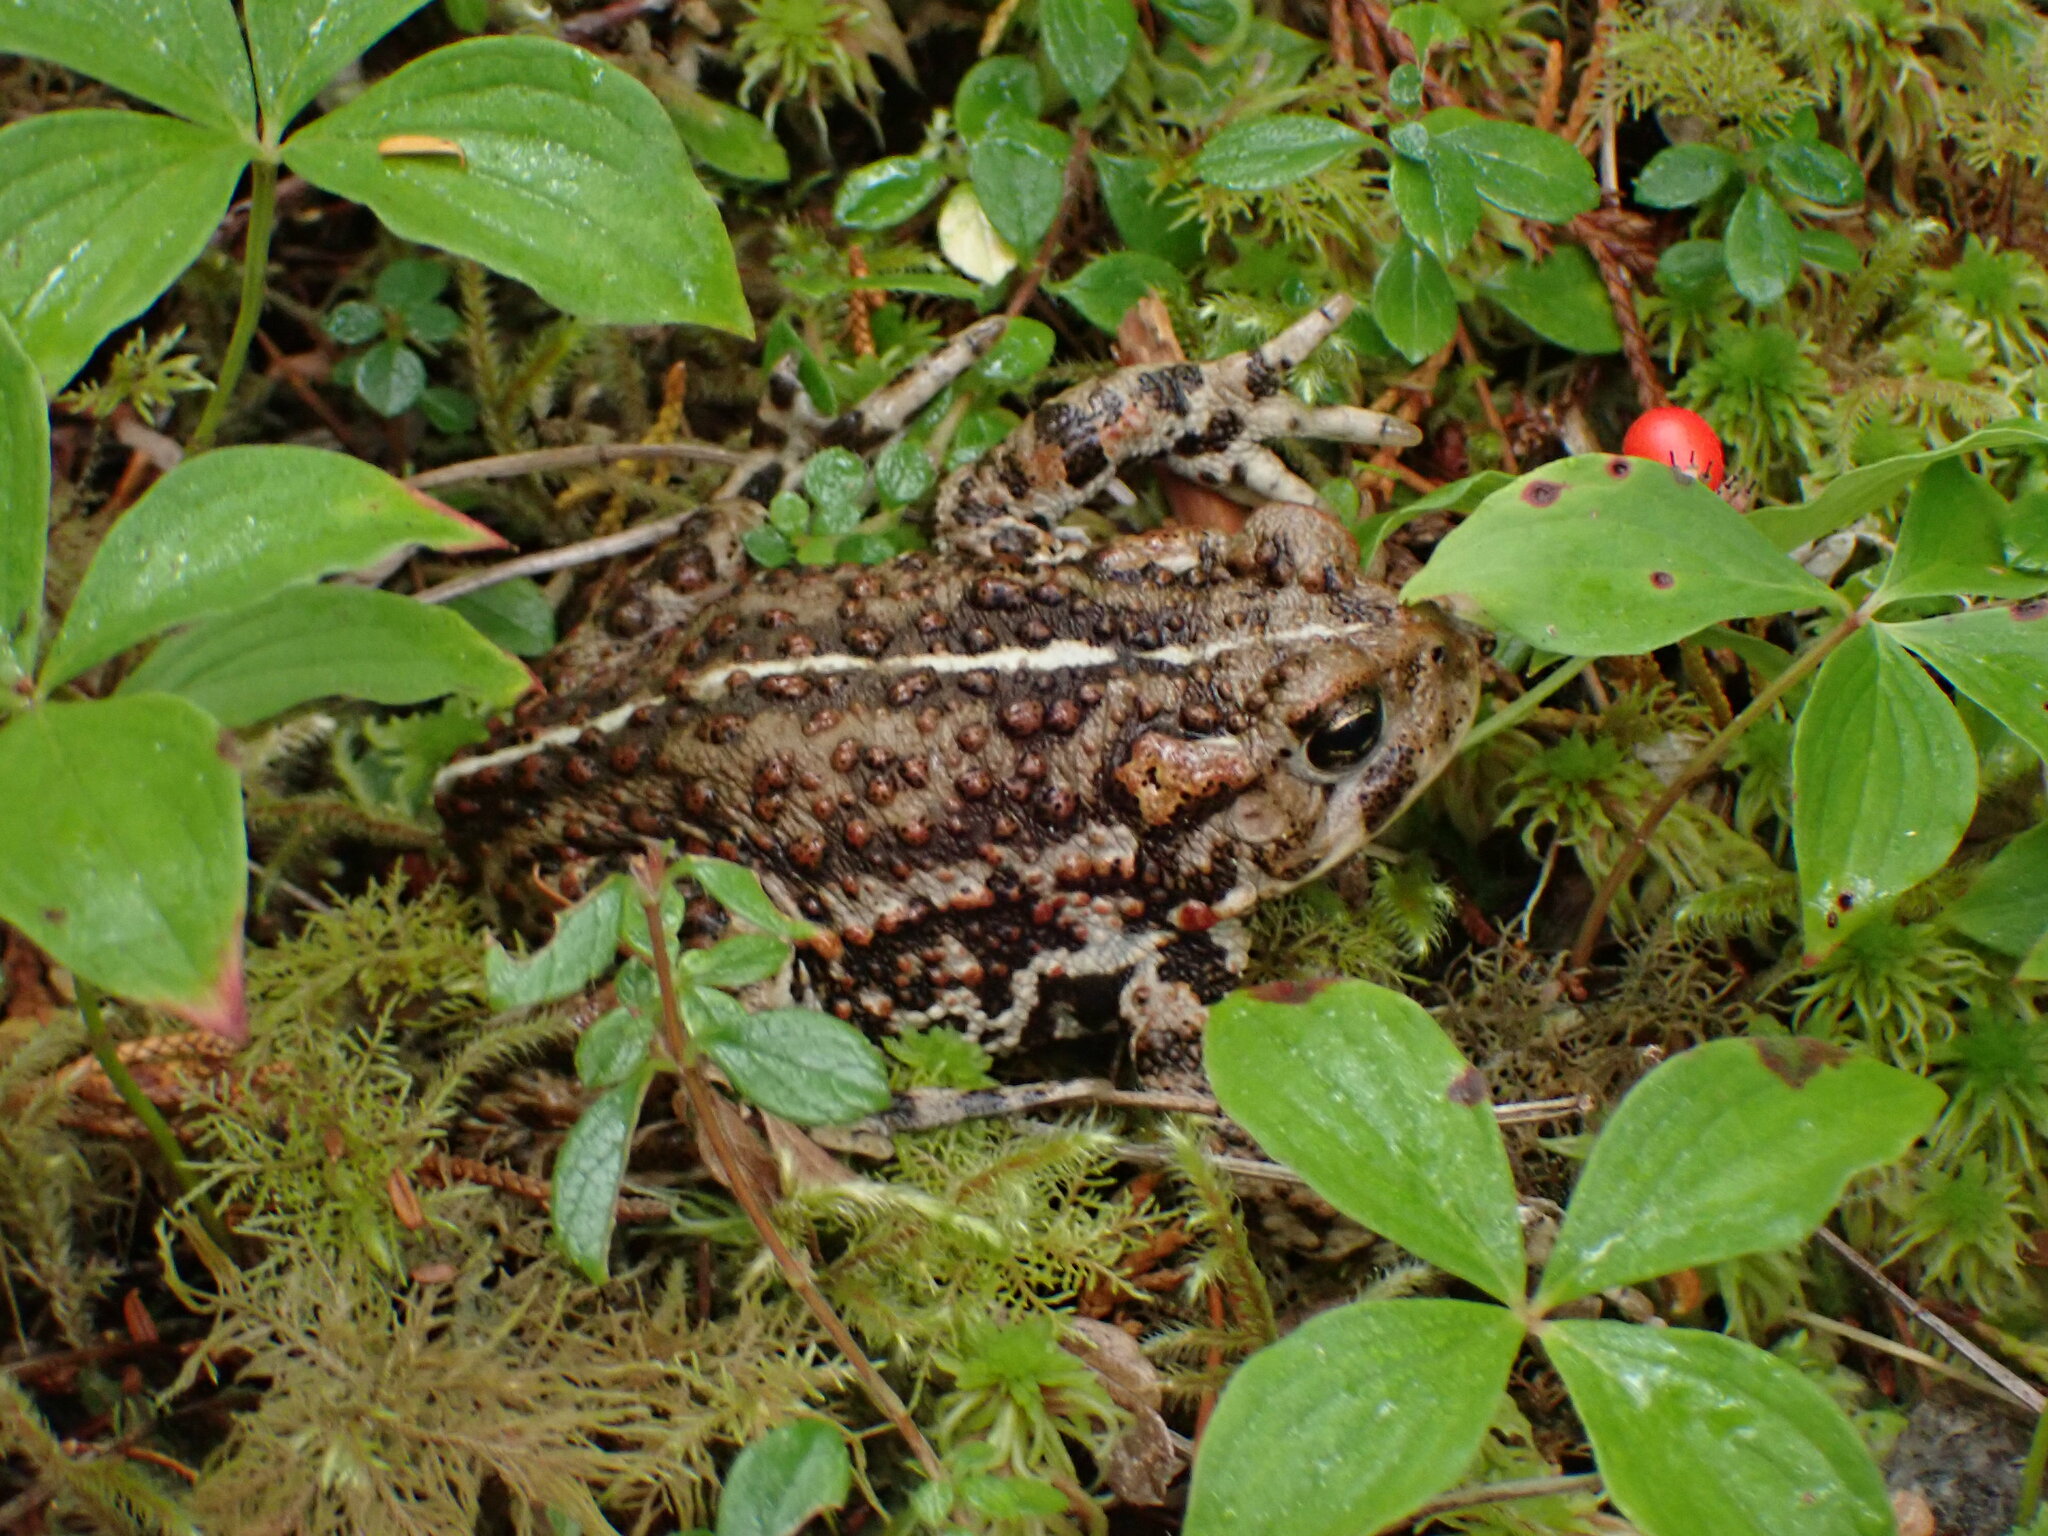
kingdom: Animalia
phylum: Chordata
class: Amphibia
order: Anura
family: Bufonidae
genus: Anaxyrus
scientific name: Anaxyrus boreas
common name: Western toad
